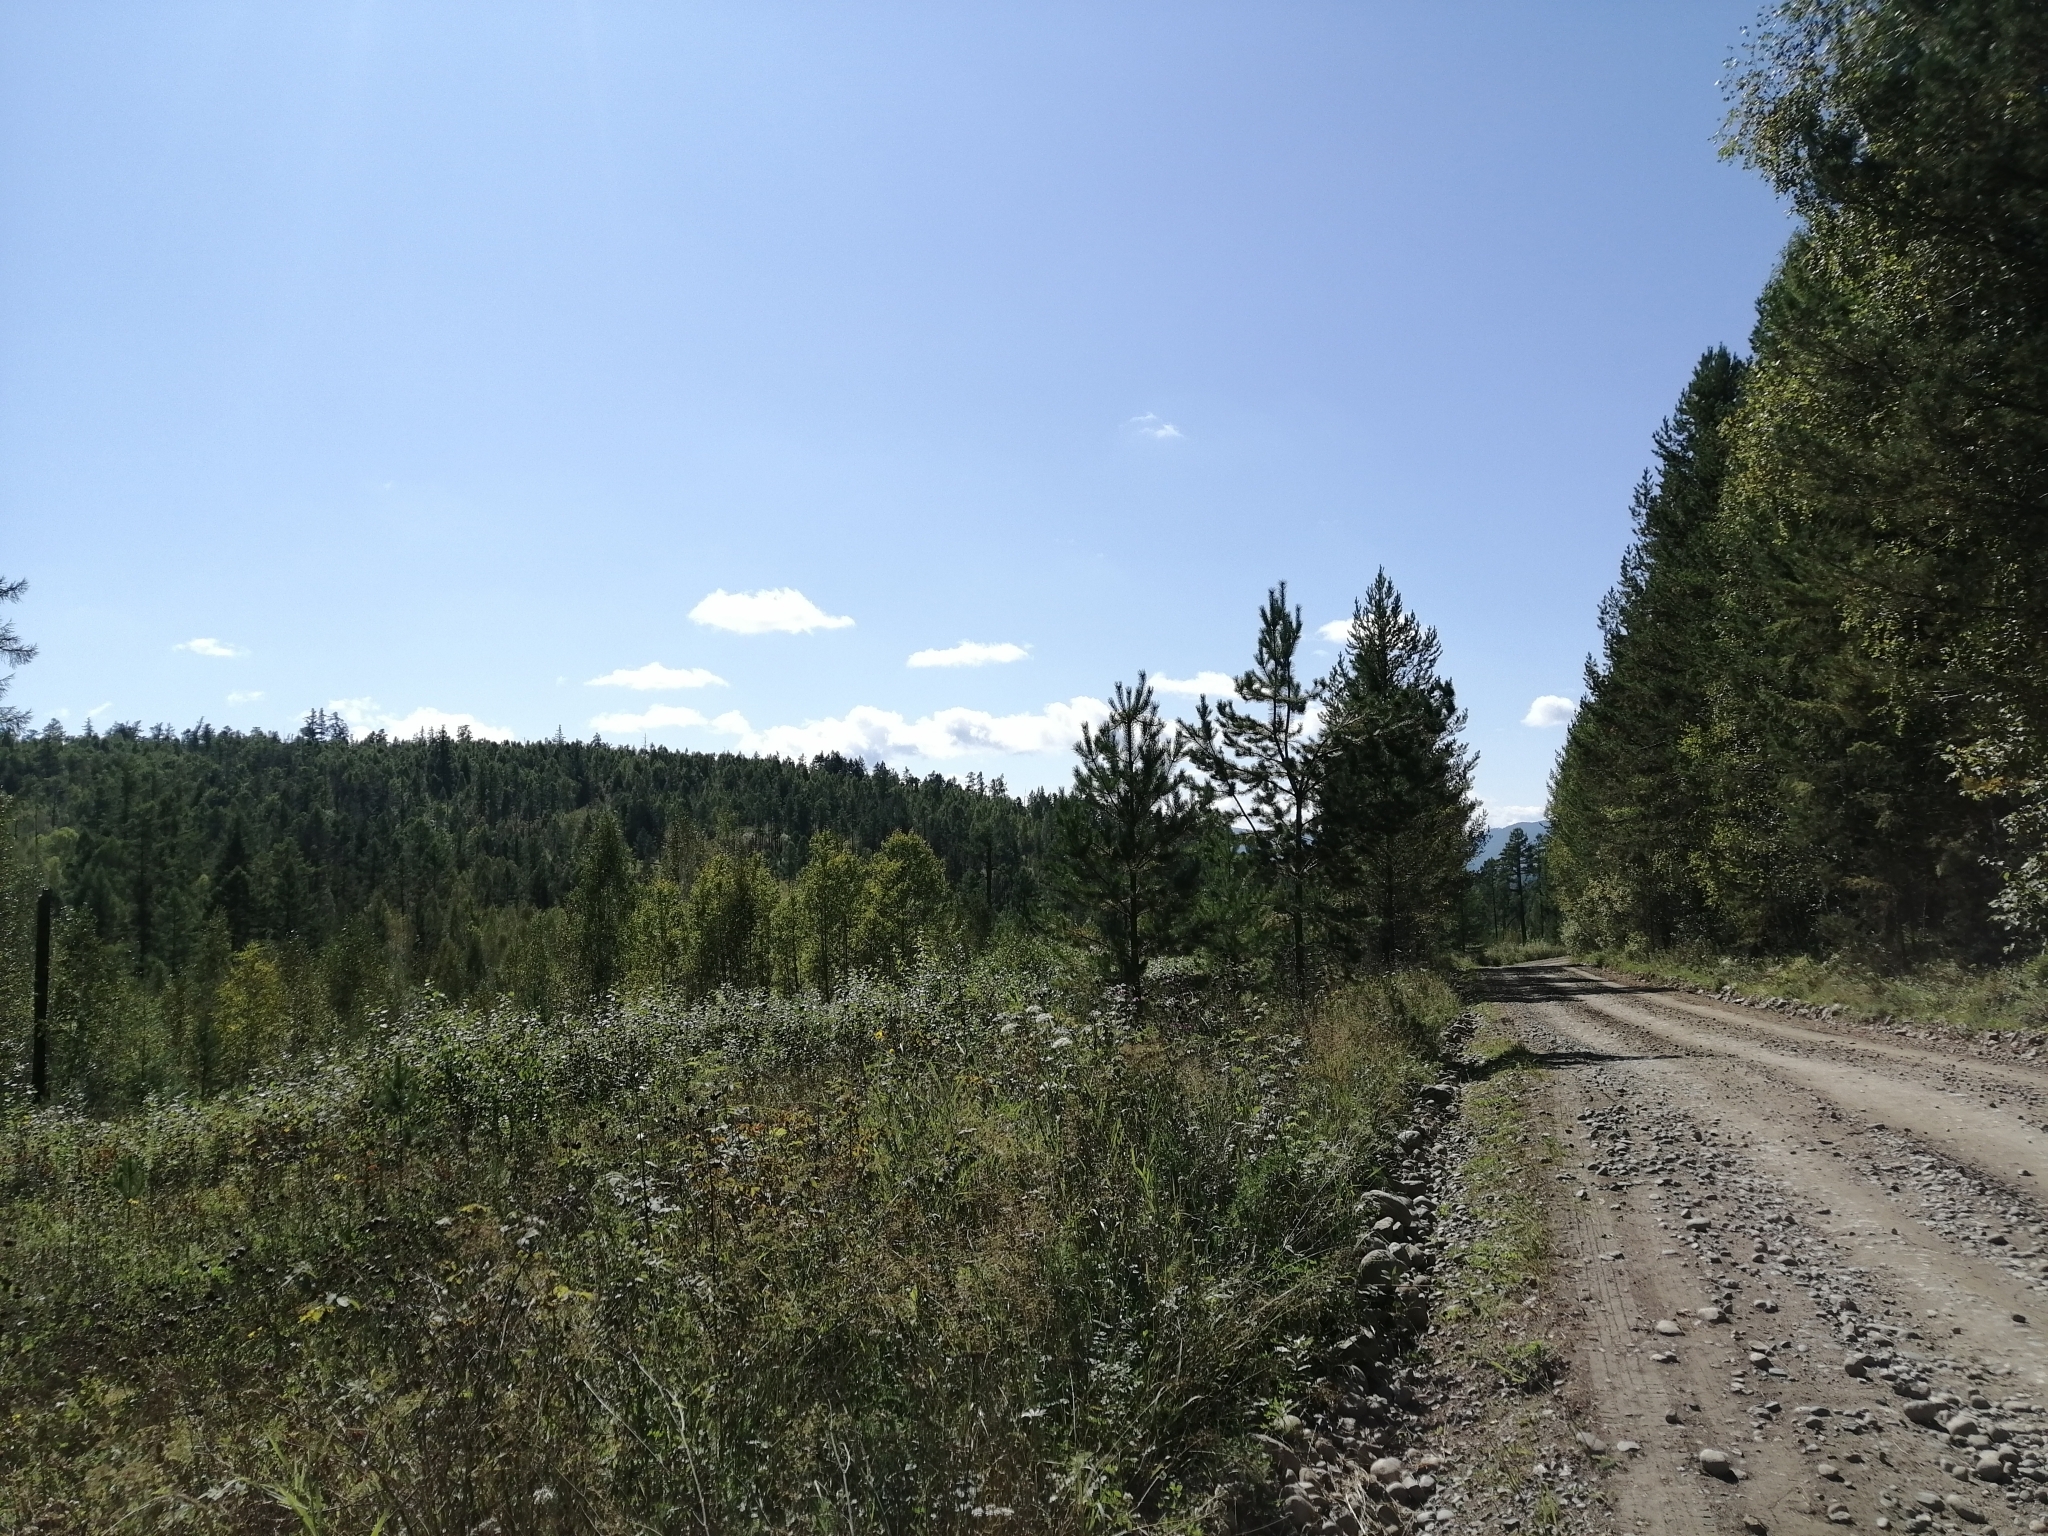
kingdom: Plantae
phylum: Tracheophyta
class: Pinopsida
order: Pinales
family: Pinaceae
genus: Pinus
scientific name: Pinus sylvestris
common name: Scots pine
